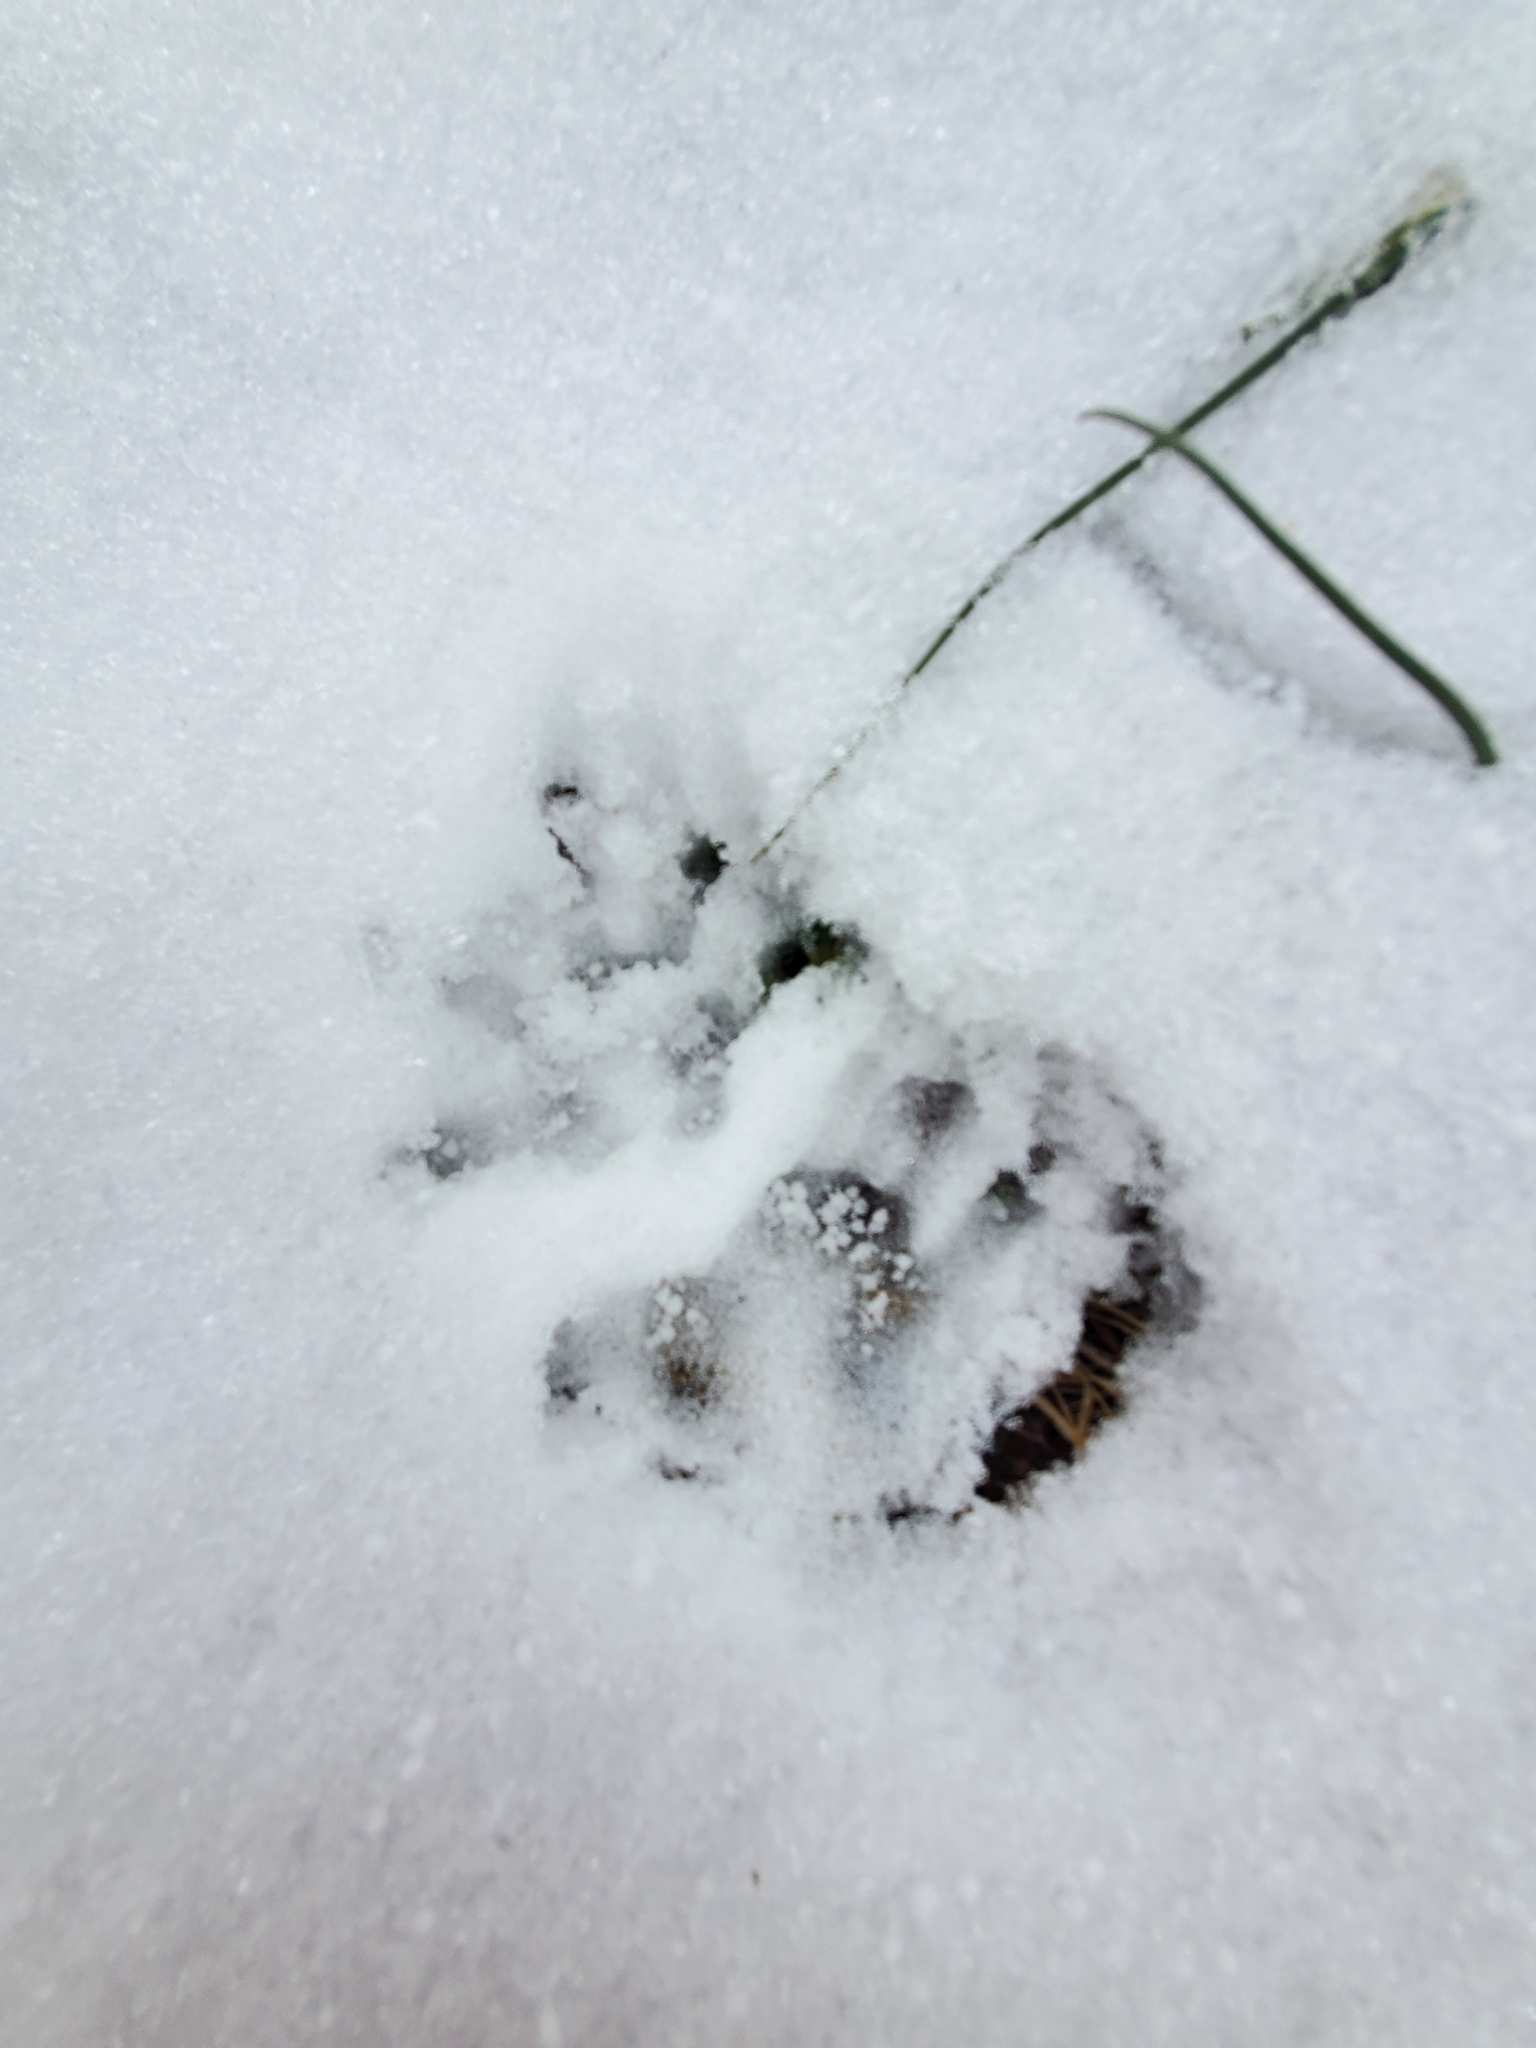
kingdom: Animalia
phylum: Chordata
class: Mammalia
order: Didelphimorphia
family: Didelphidae
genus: Didelphis
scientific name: Didelphis virginiana
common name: Virginia opossum
